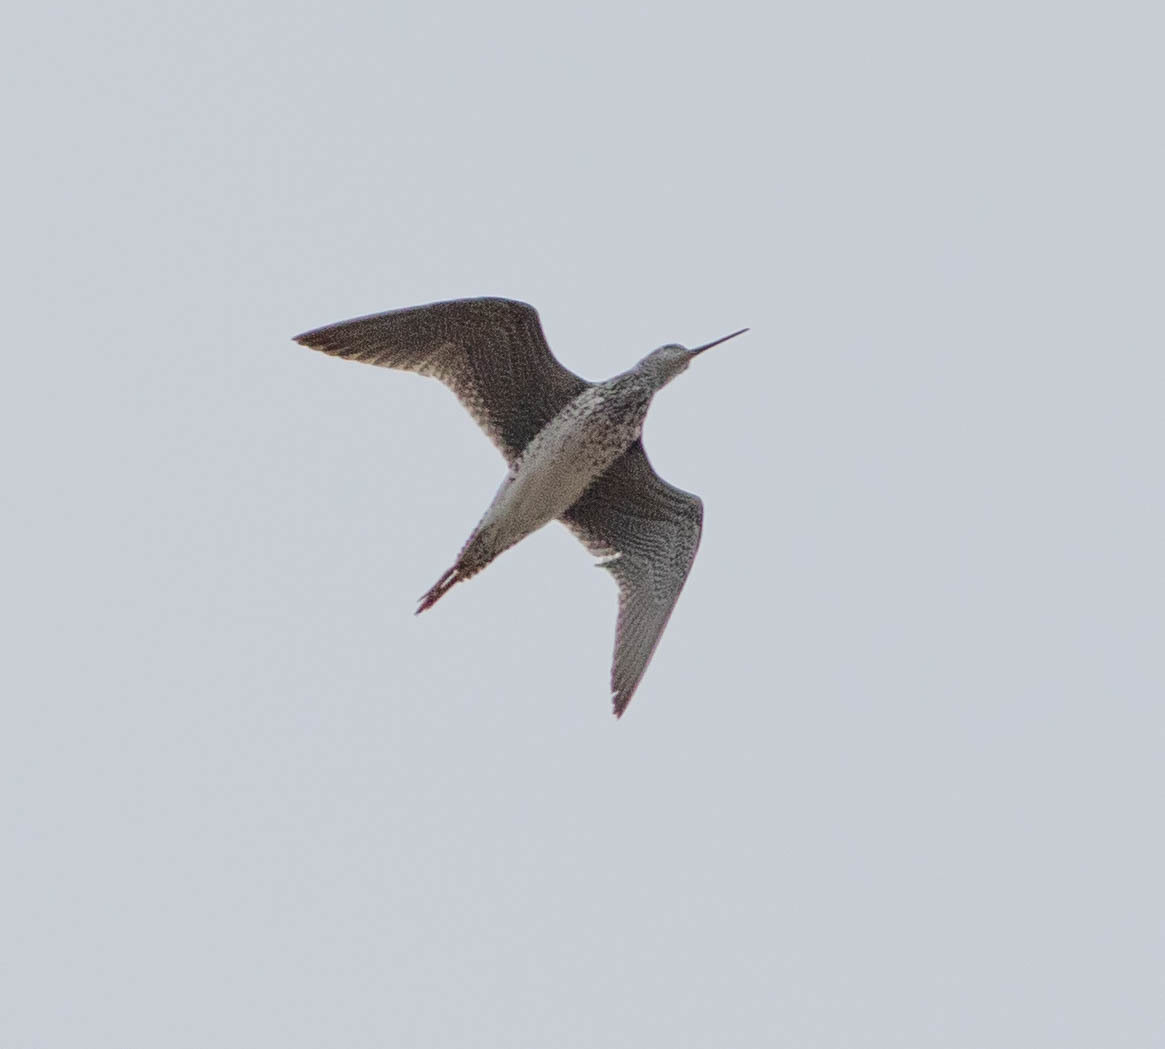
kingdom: Animalia
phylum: Chordata
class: Aves
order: Charadriiformes
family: Scolopacidae
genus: Tringa
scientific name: Tringa melanoleuca
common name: Greater yellowlegs
